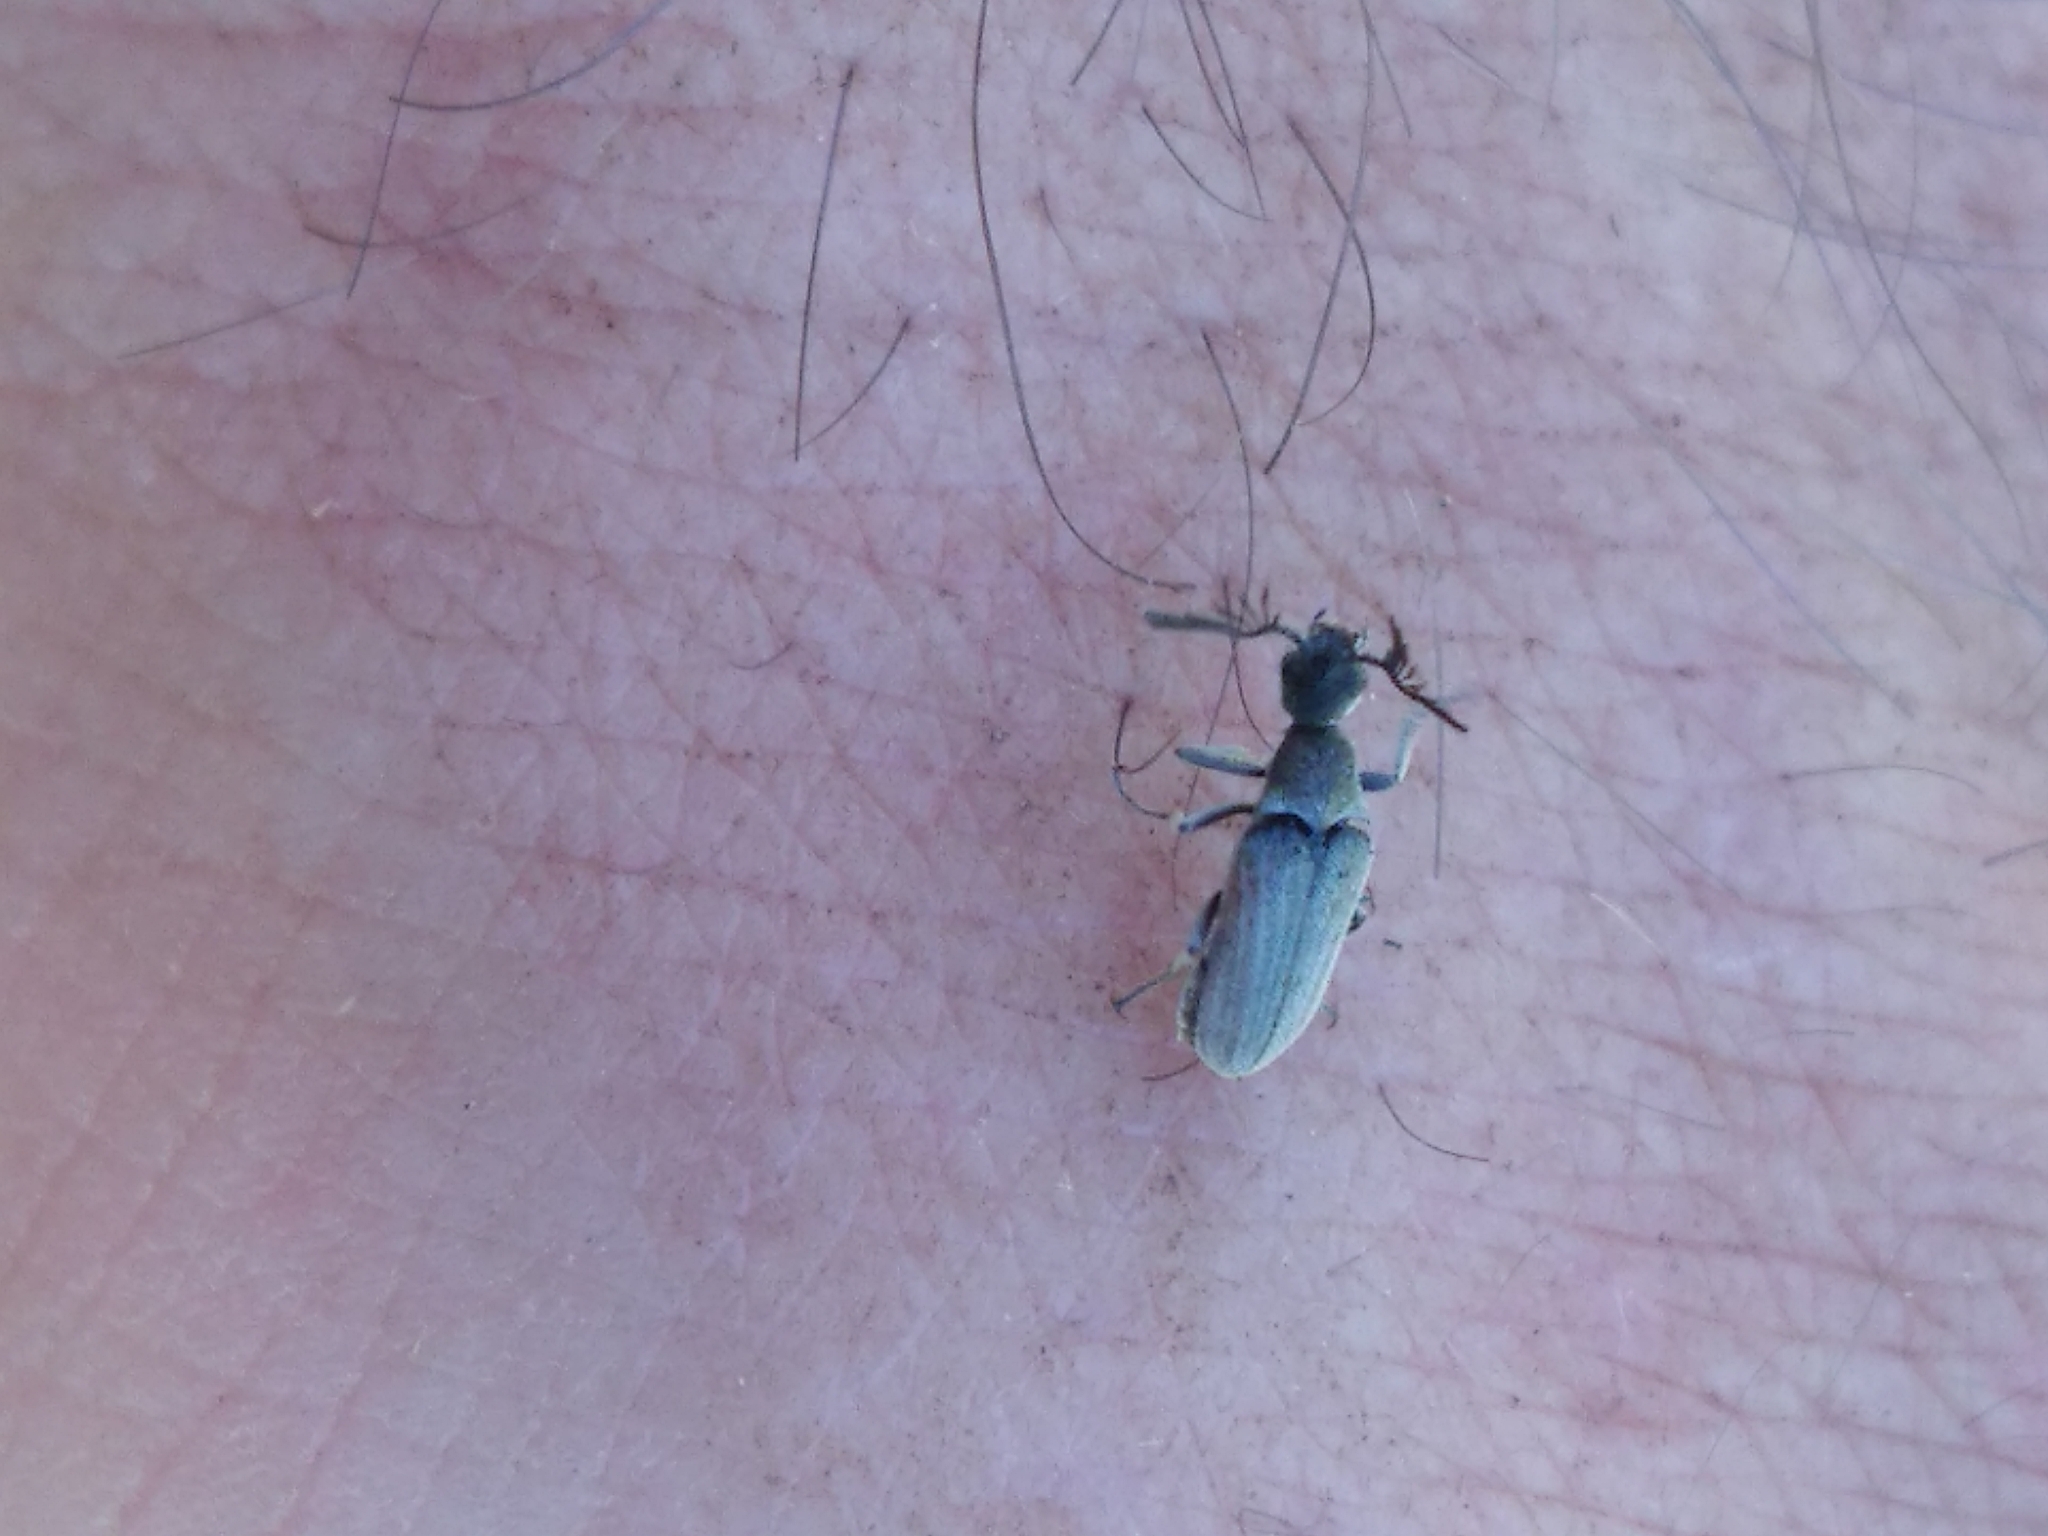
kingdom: Animalia
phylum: Arthropoda
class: Insecta
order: Coleoptera
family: Ripiphoridae
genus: Ptilophorus
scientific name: Ptilophorus dufourii
